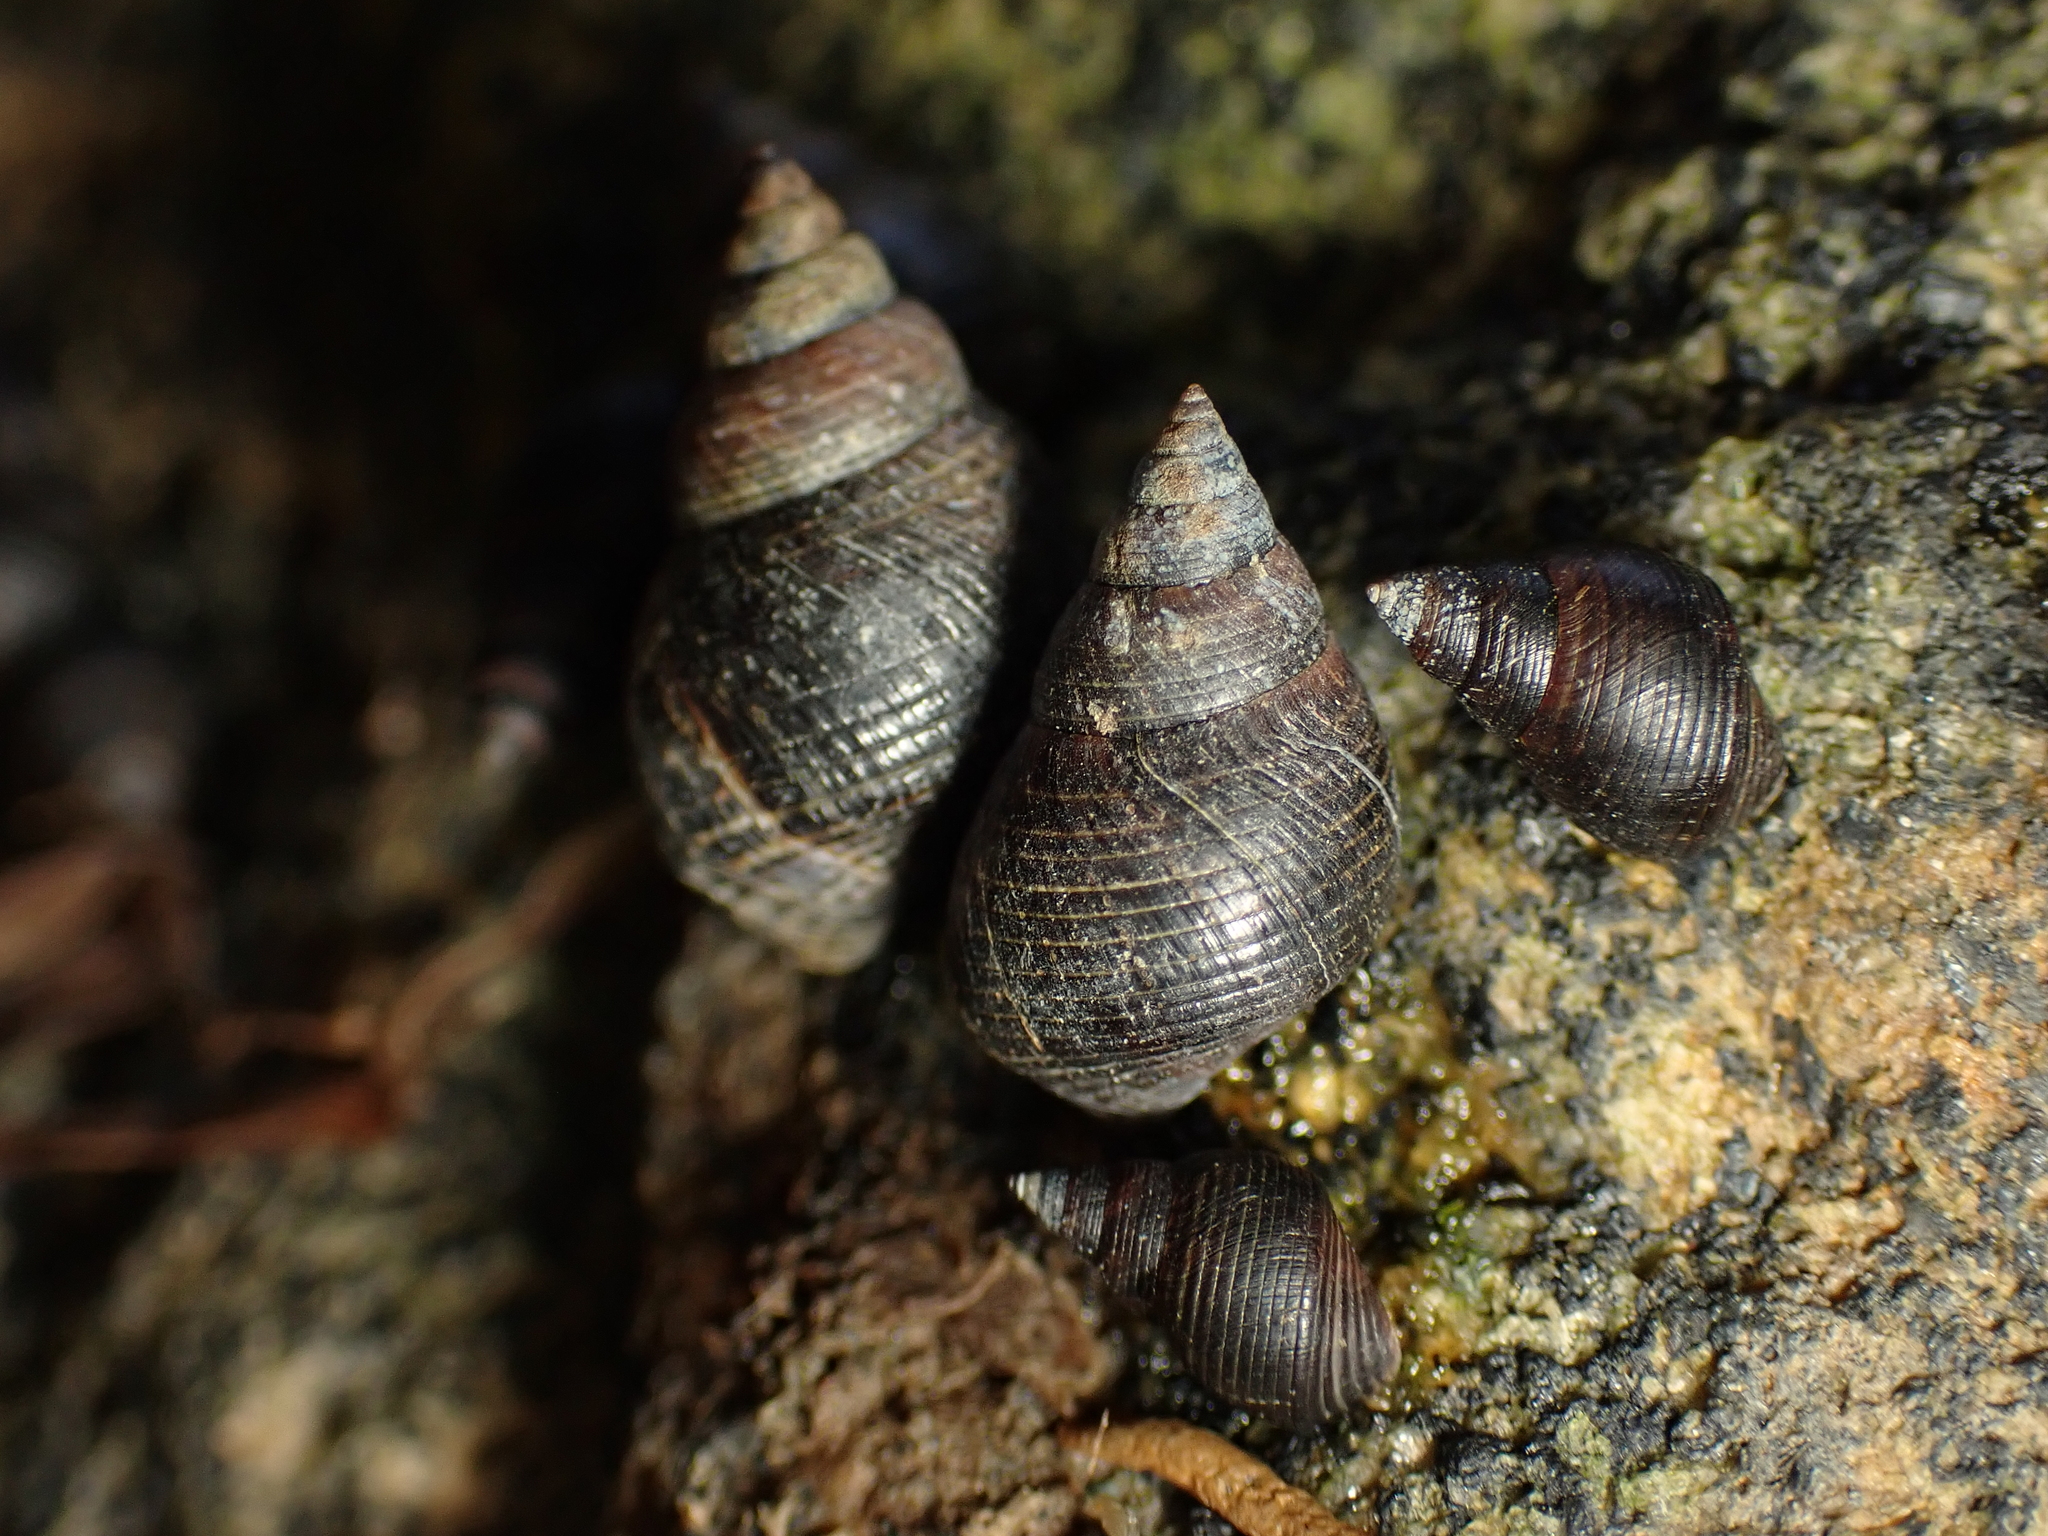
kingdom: Animalia
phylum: Mollusca
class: Gastropoda
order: Littorinimorpha
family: Littorinidae
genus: Austrolittorina
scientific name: Austrolittorina cincta
